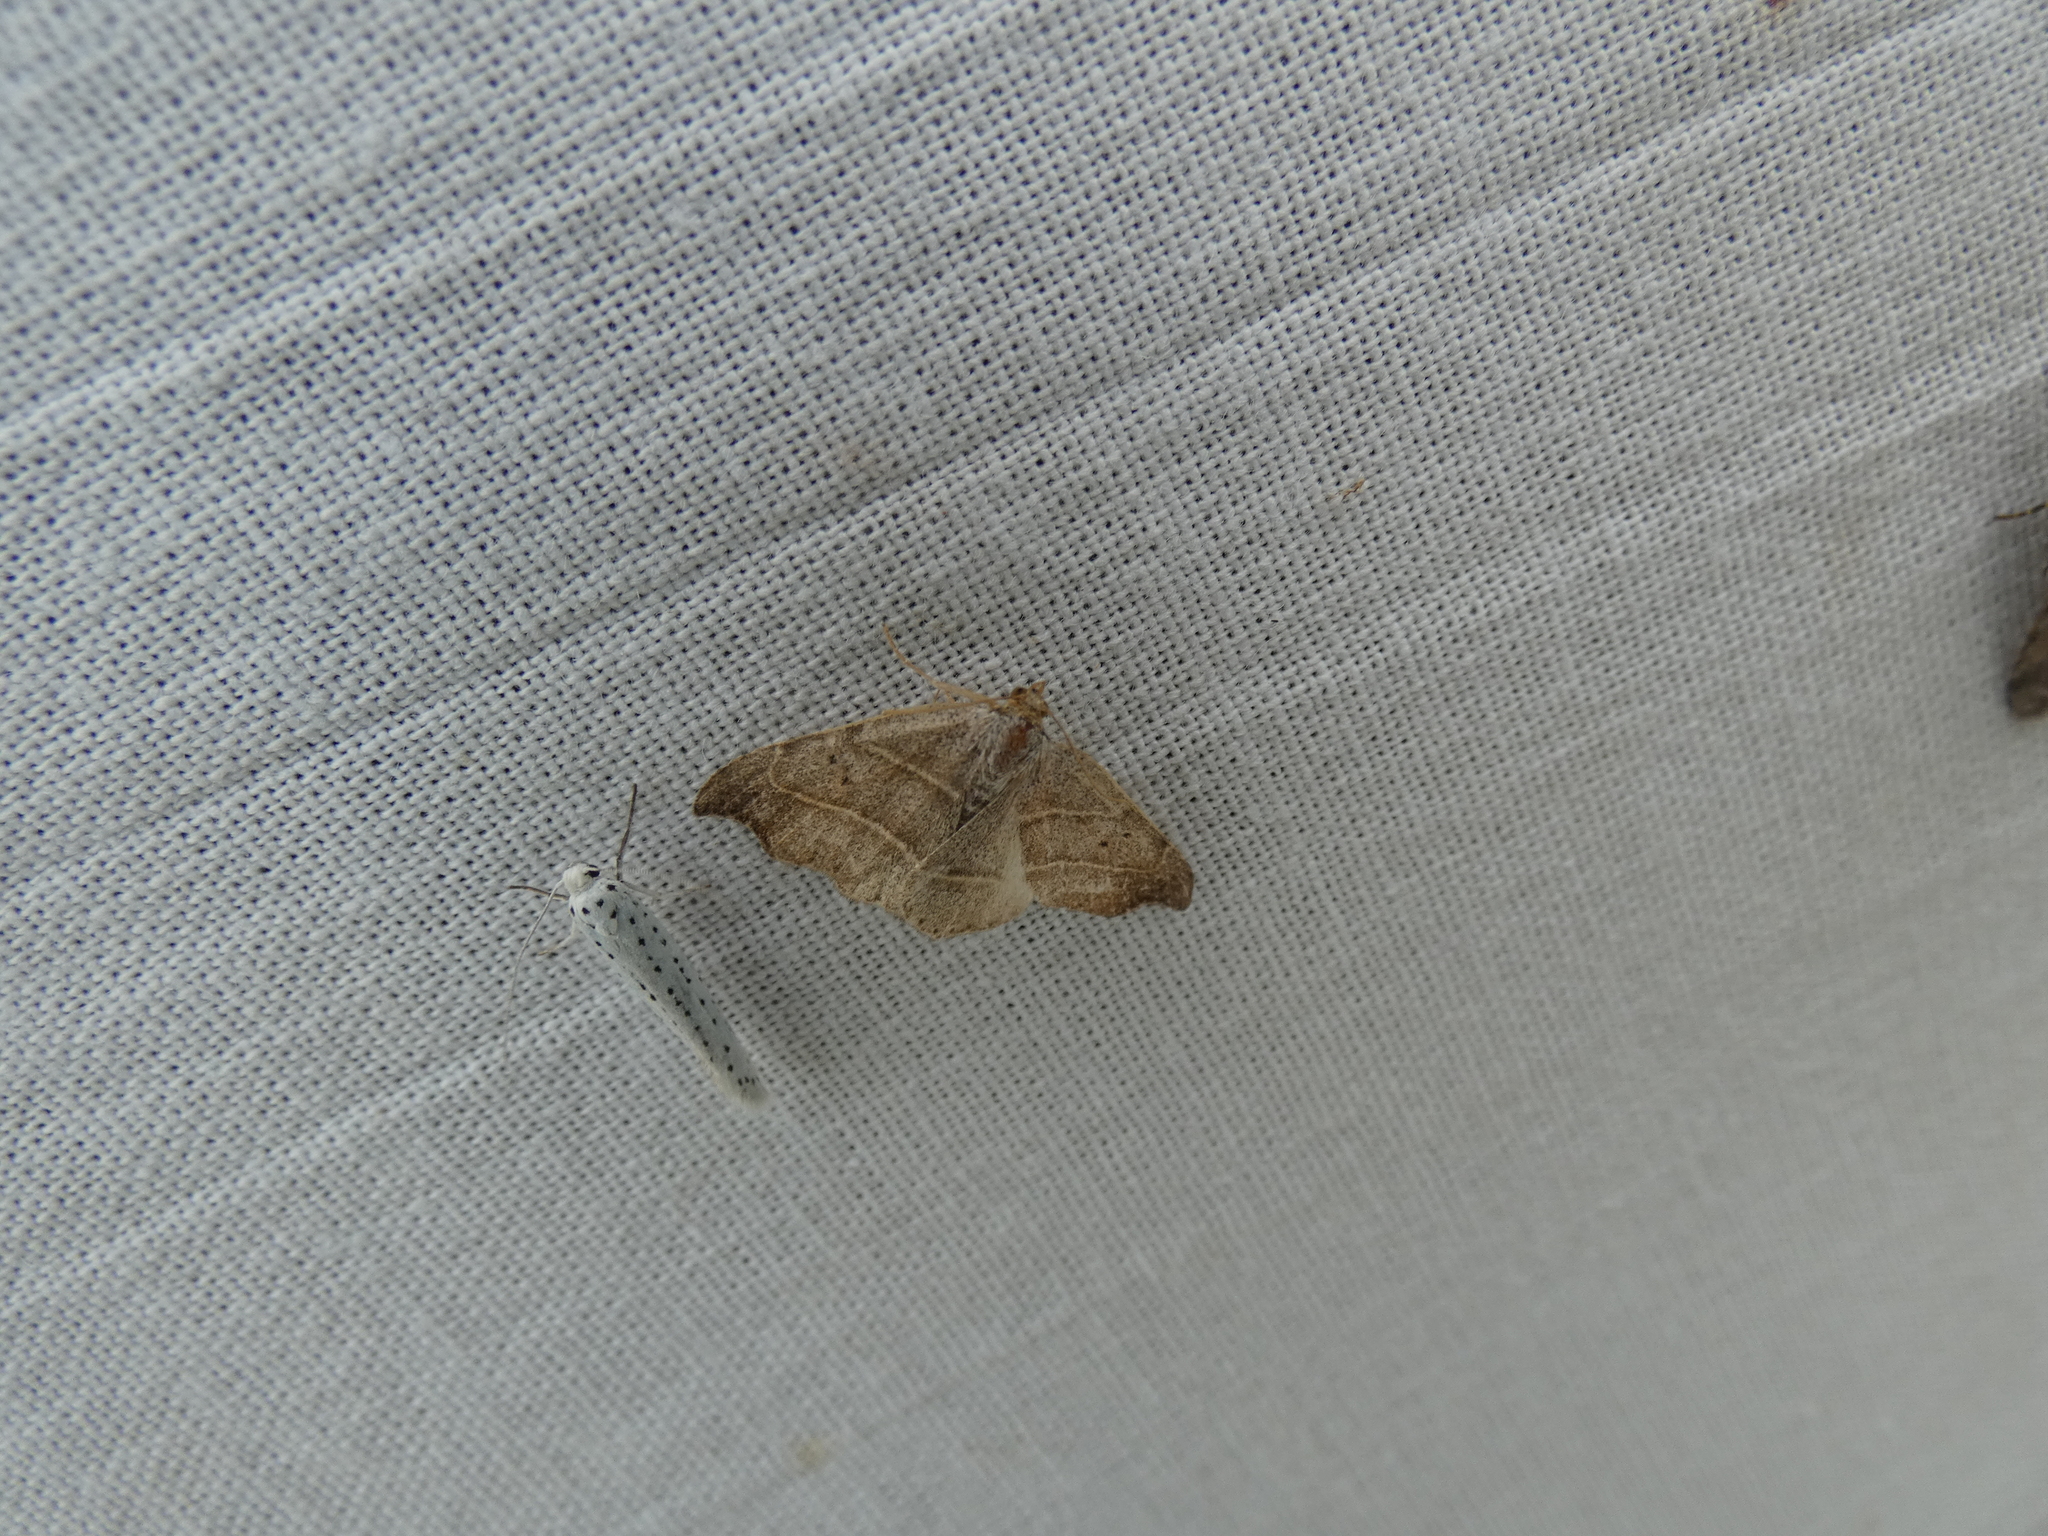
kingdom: Animalia
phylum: Arthropoda
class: Insecta
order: Lepidoptera
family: Erebidae
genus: Laspeyria
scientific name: Laspeyria flexula
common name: Beautiful hook-tip
